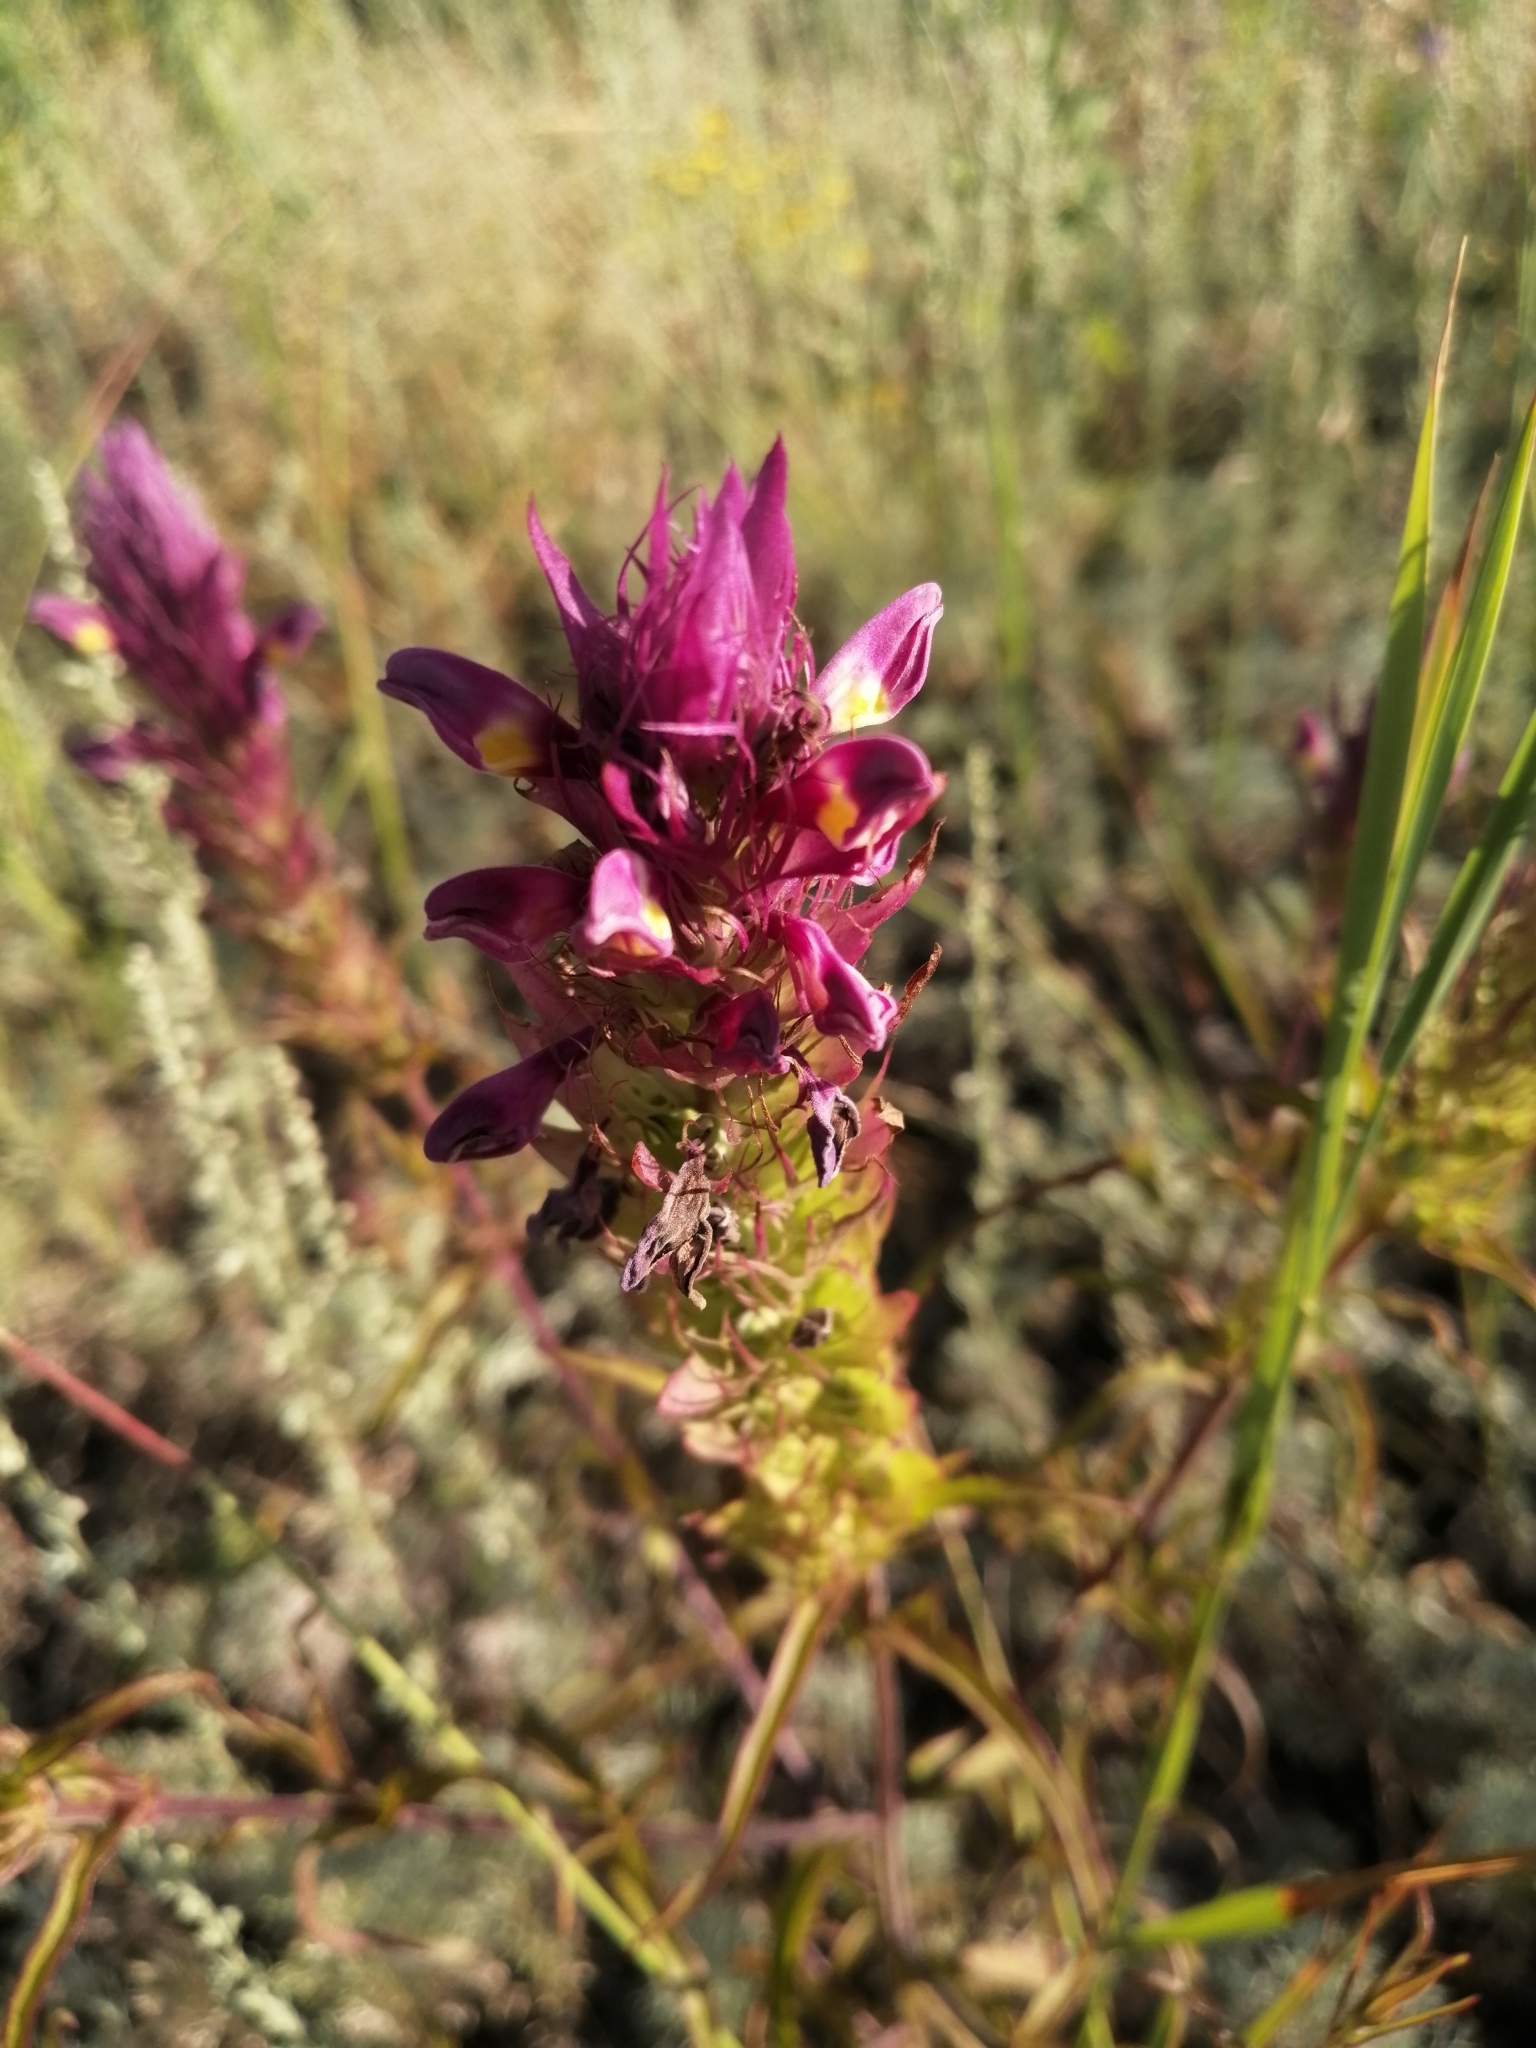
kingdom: Plantae
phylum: Tracheophyta
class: Magnoliopsida
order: Lamiales
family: Orobanchaceae
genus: Melampyrum
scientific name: Melampyrum arvense
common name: Field cow-wheat
